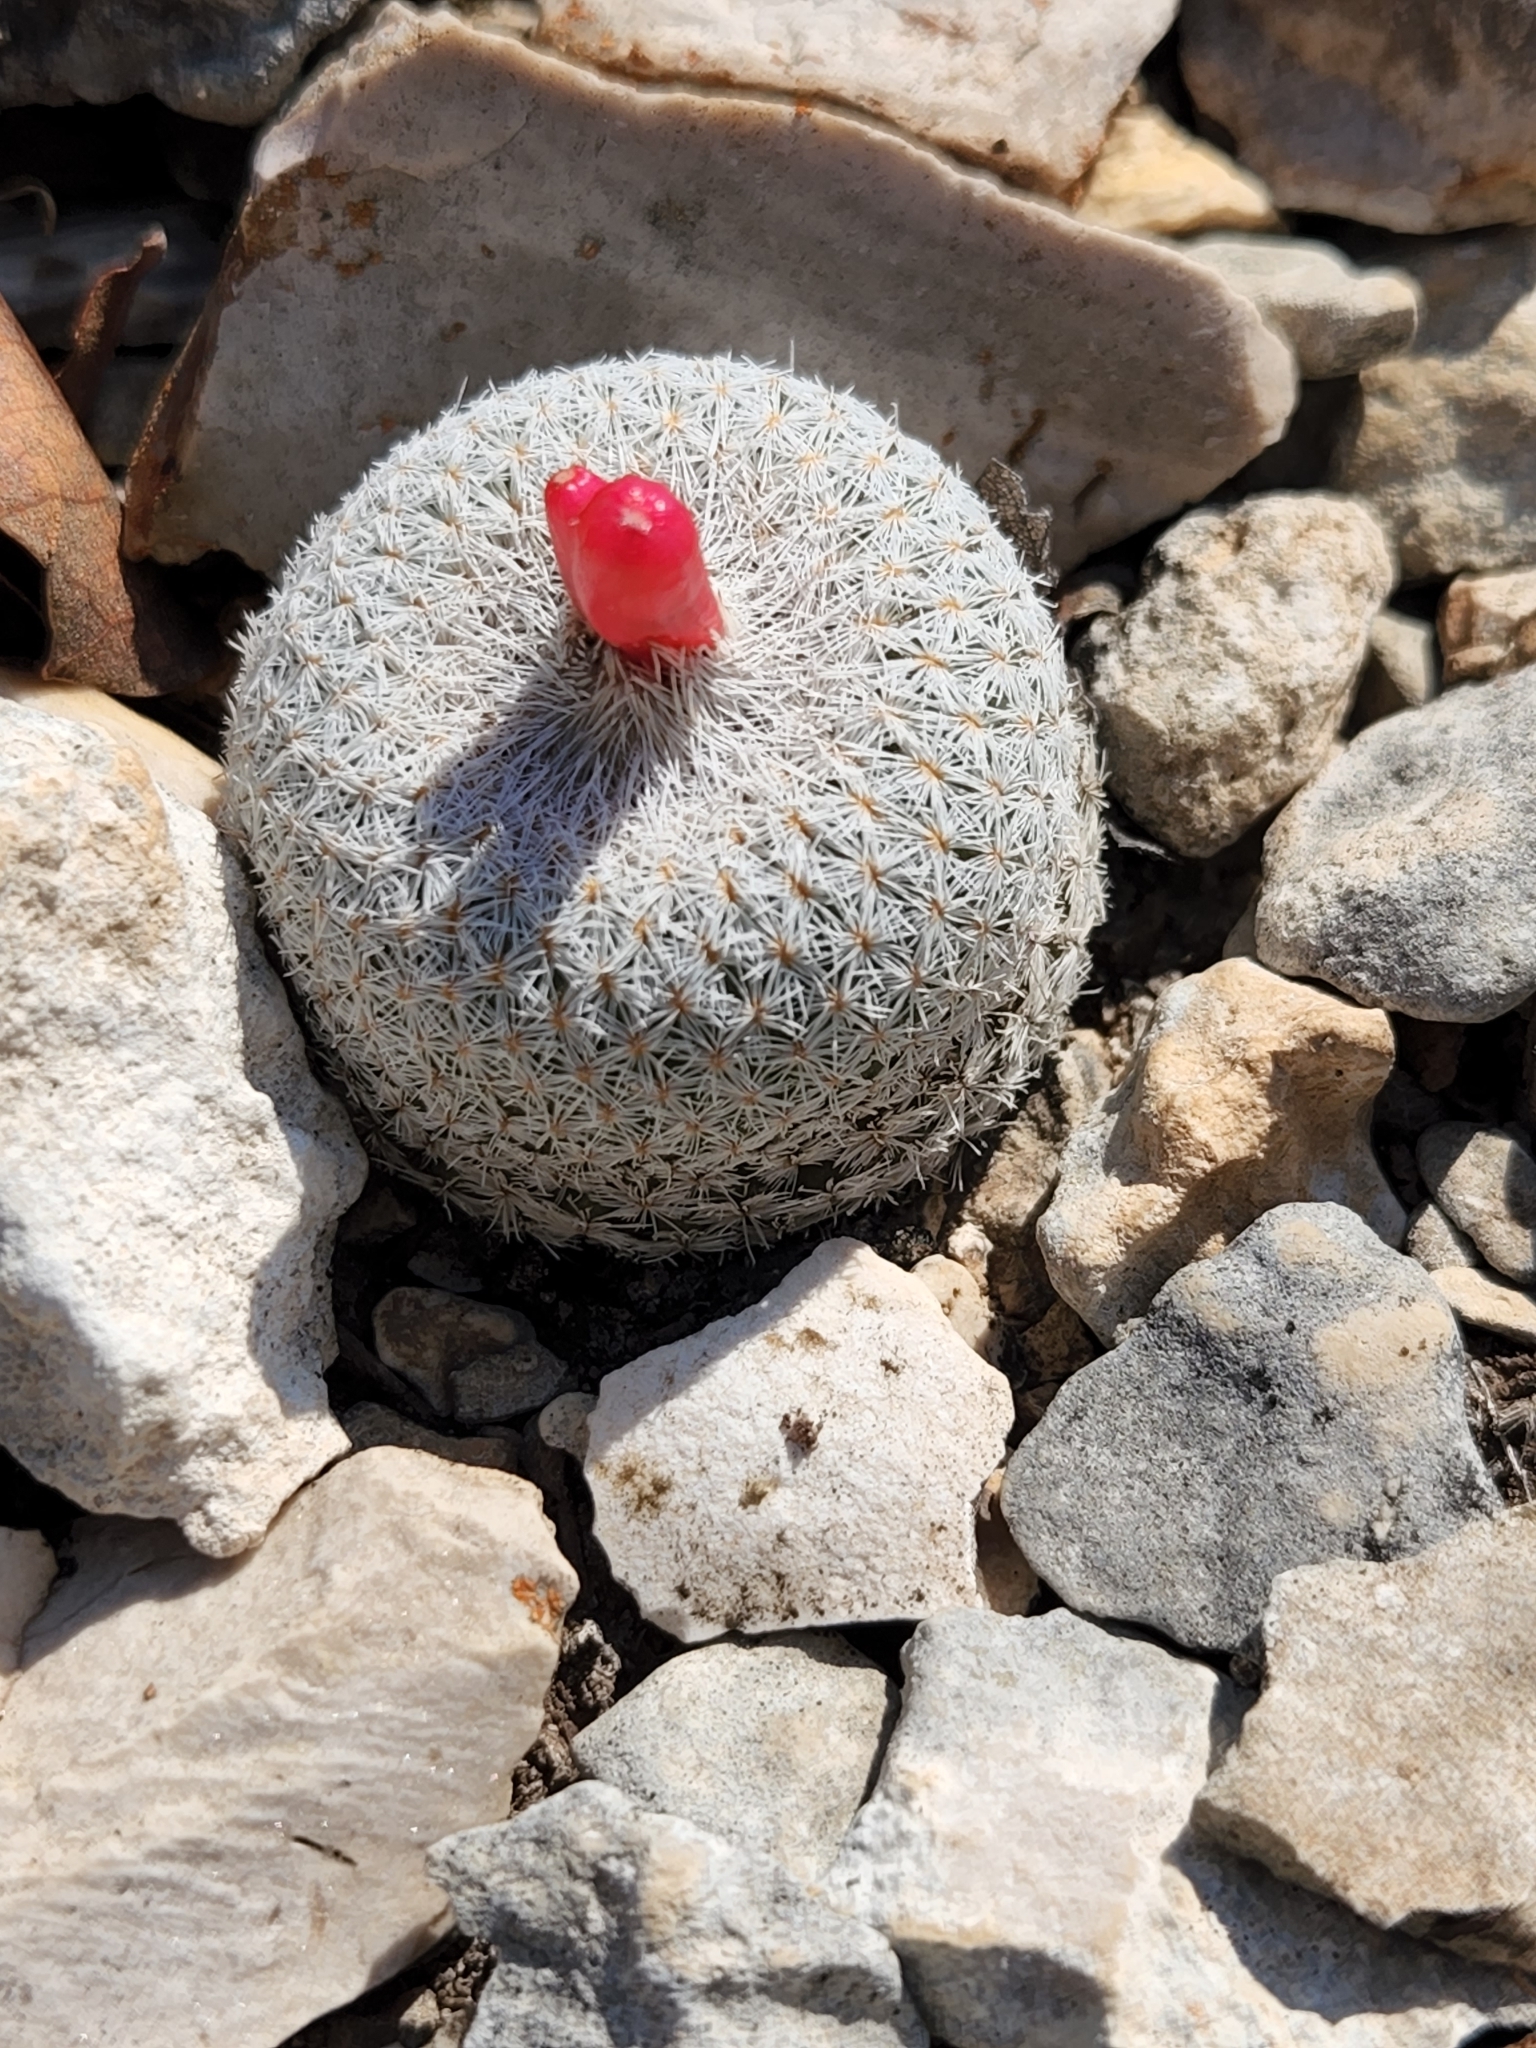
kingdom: Plantae
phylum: Tracheophyta
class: Magnoliopsida
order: Caryophyllales
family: Cactaceae
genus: Epithelantha
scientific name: Epithelantha micromeris
